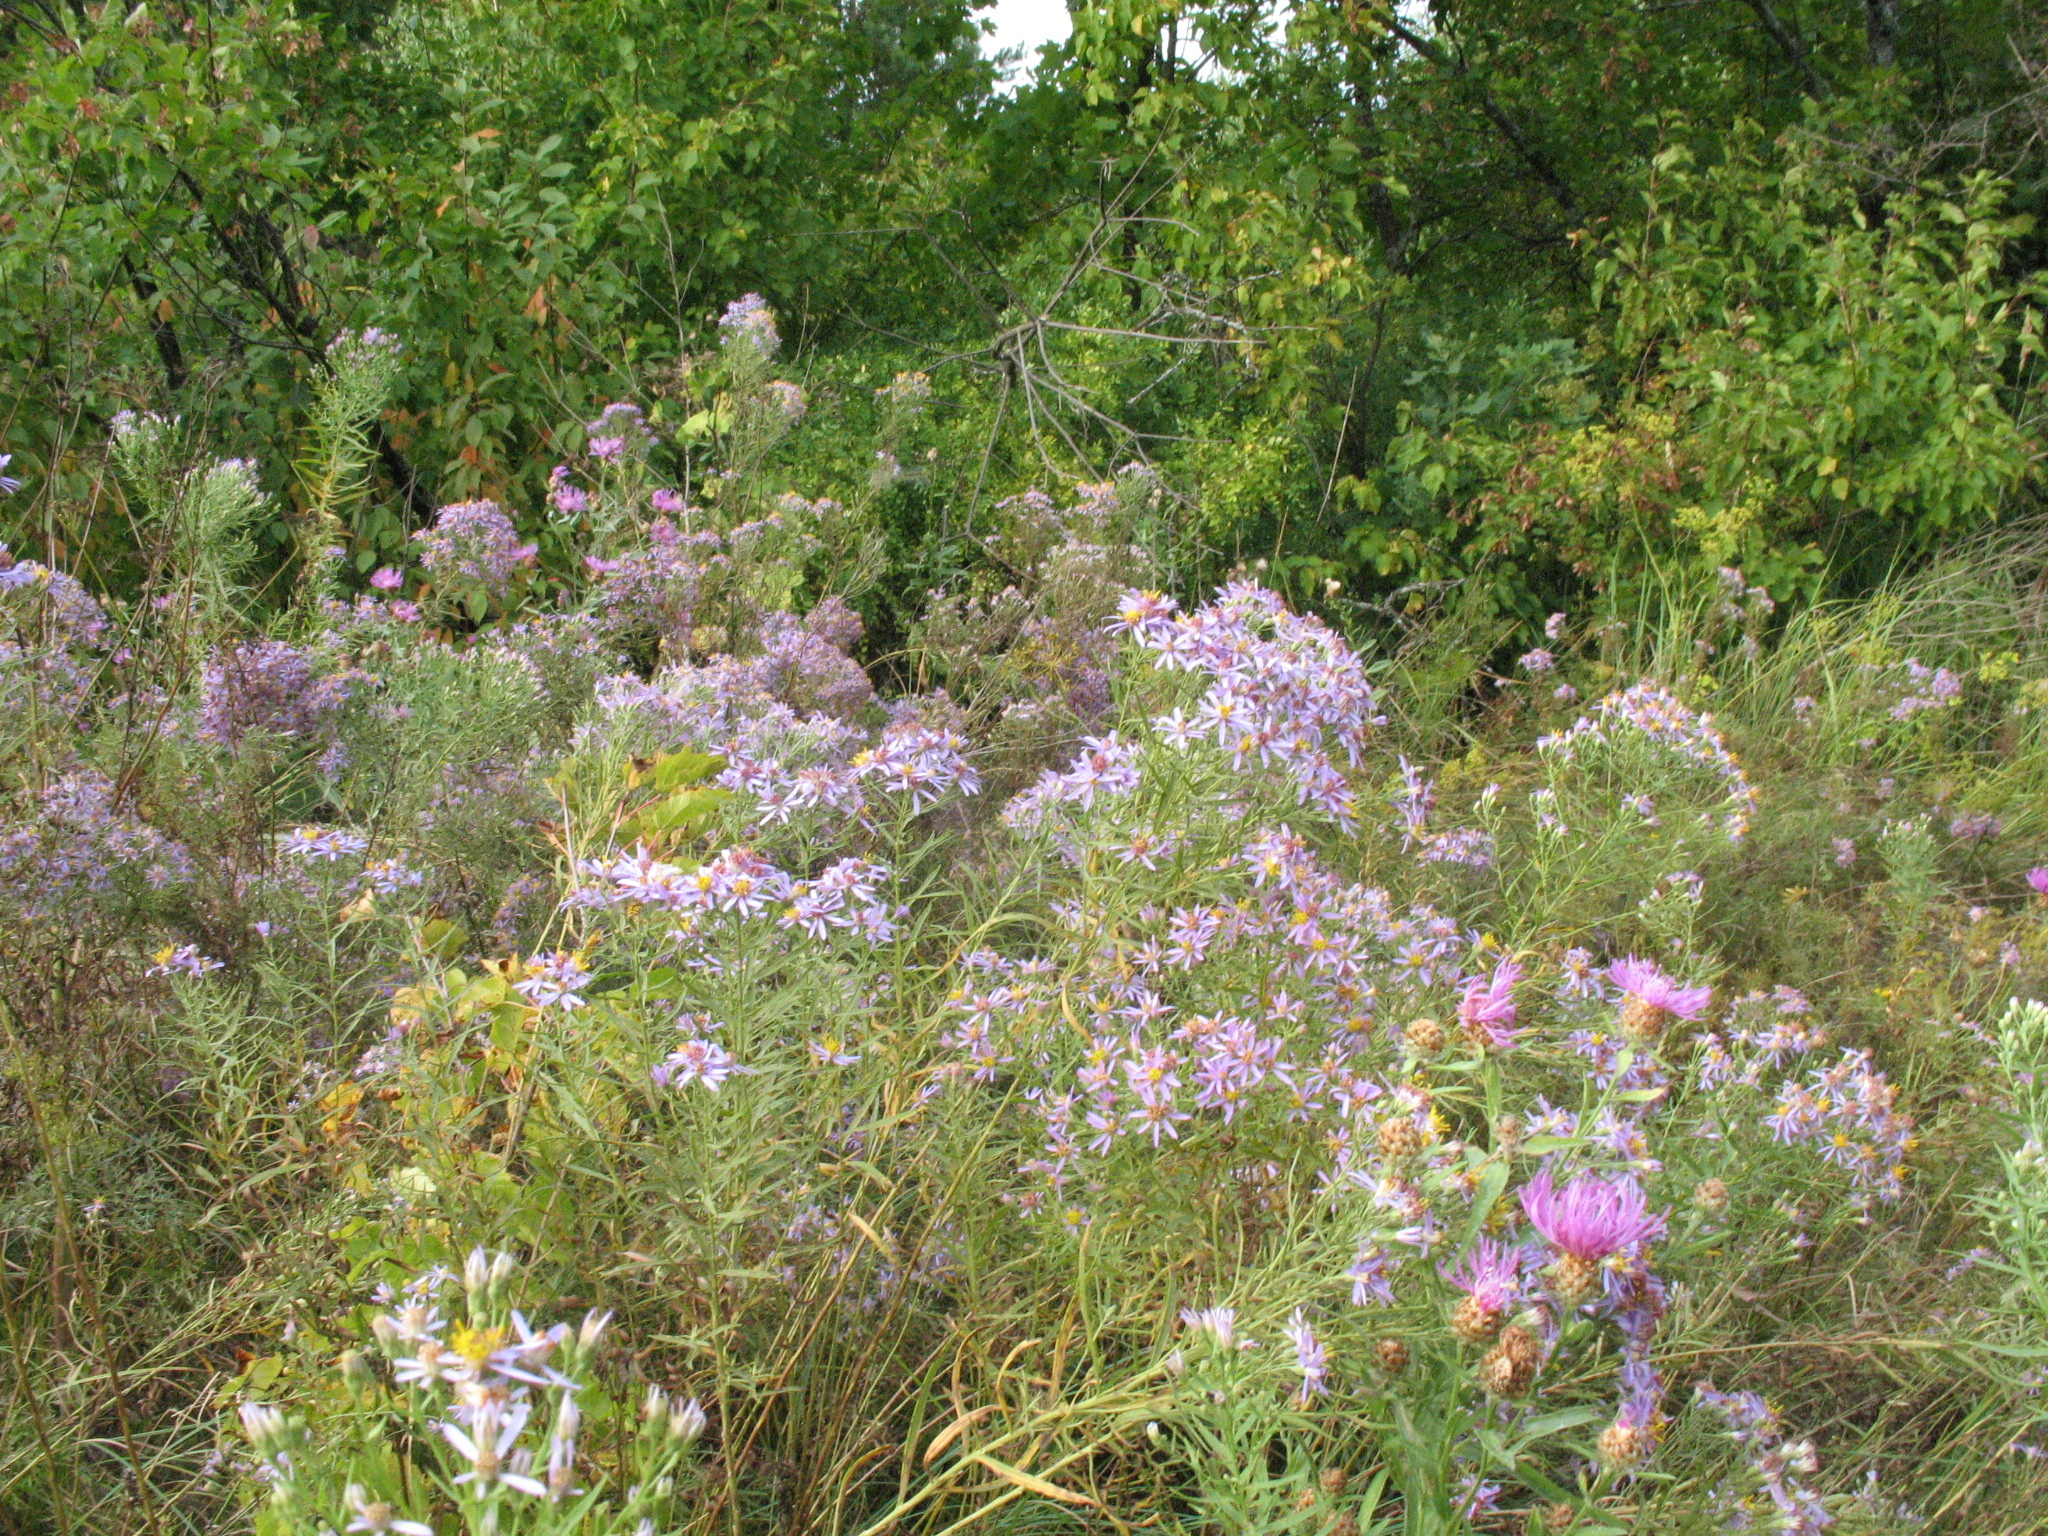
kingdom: Plantae
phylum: Tracheophyta
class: Magnoliopsida
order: Asterales
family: Asteraceae
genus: Galatella
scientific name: Galatella sedifolia
